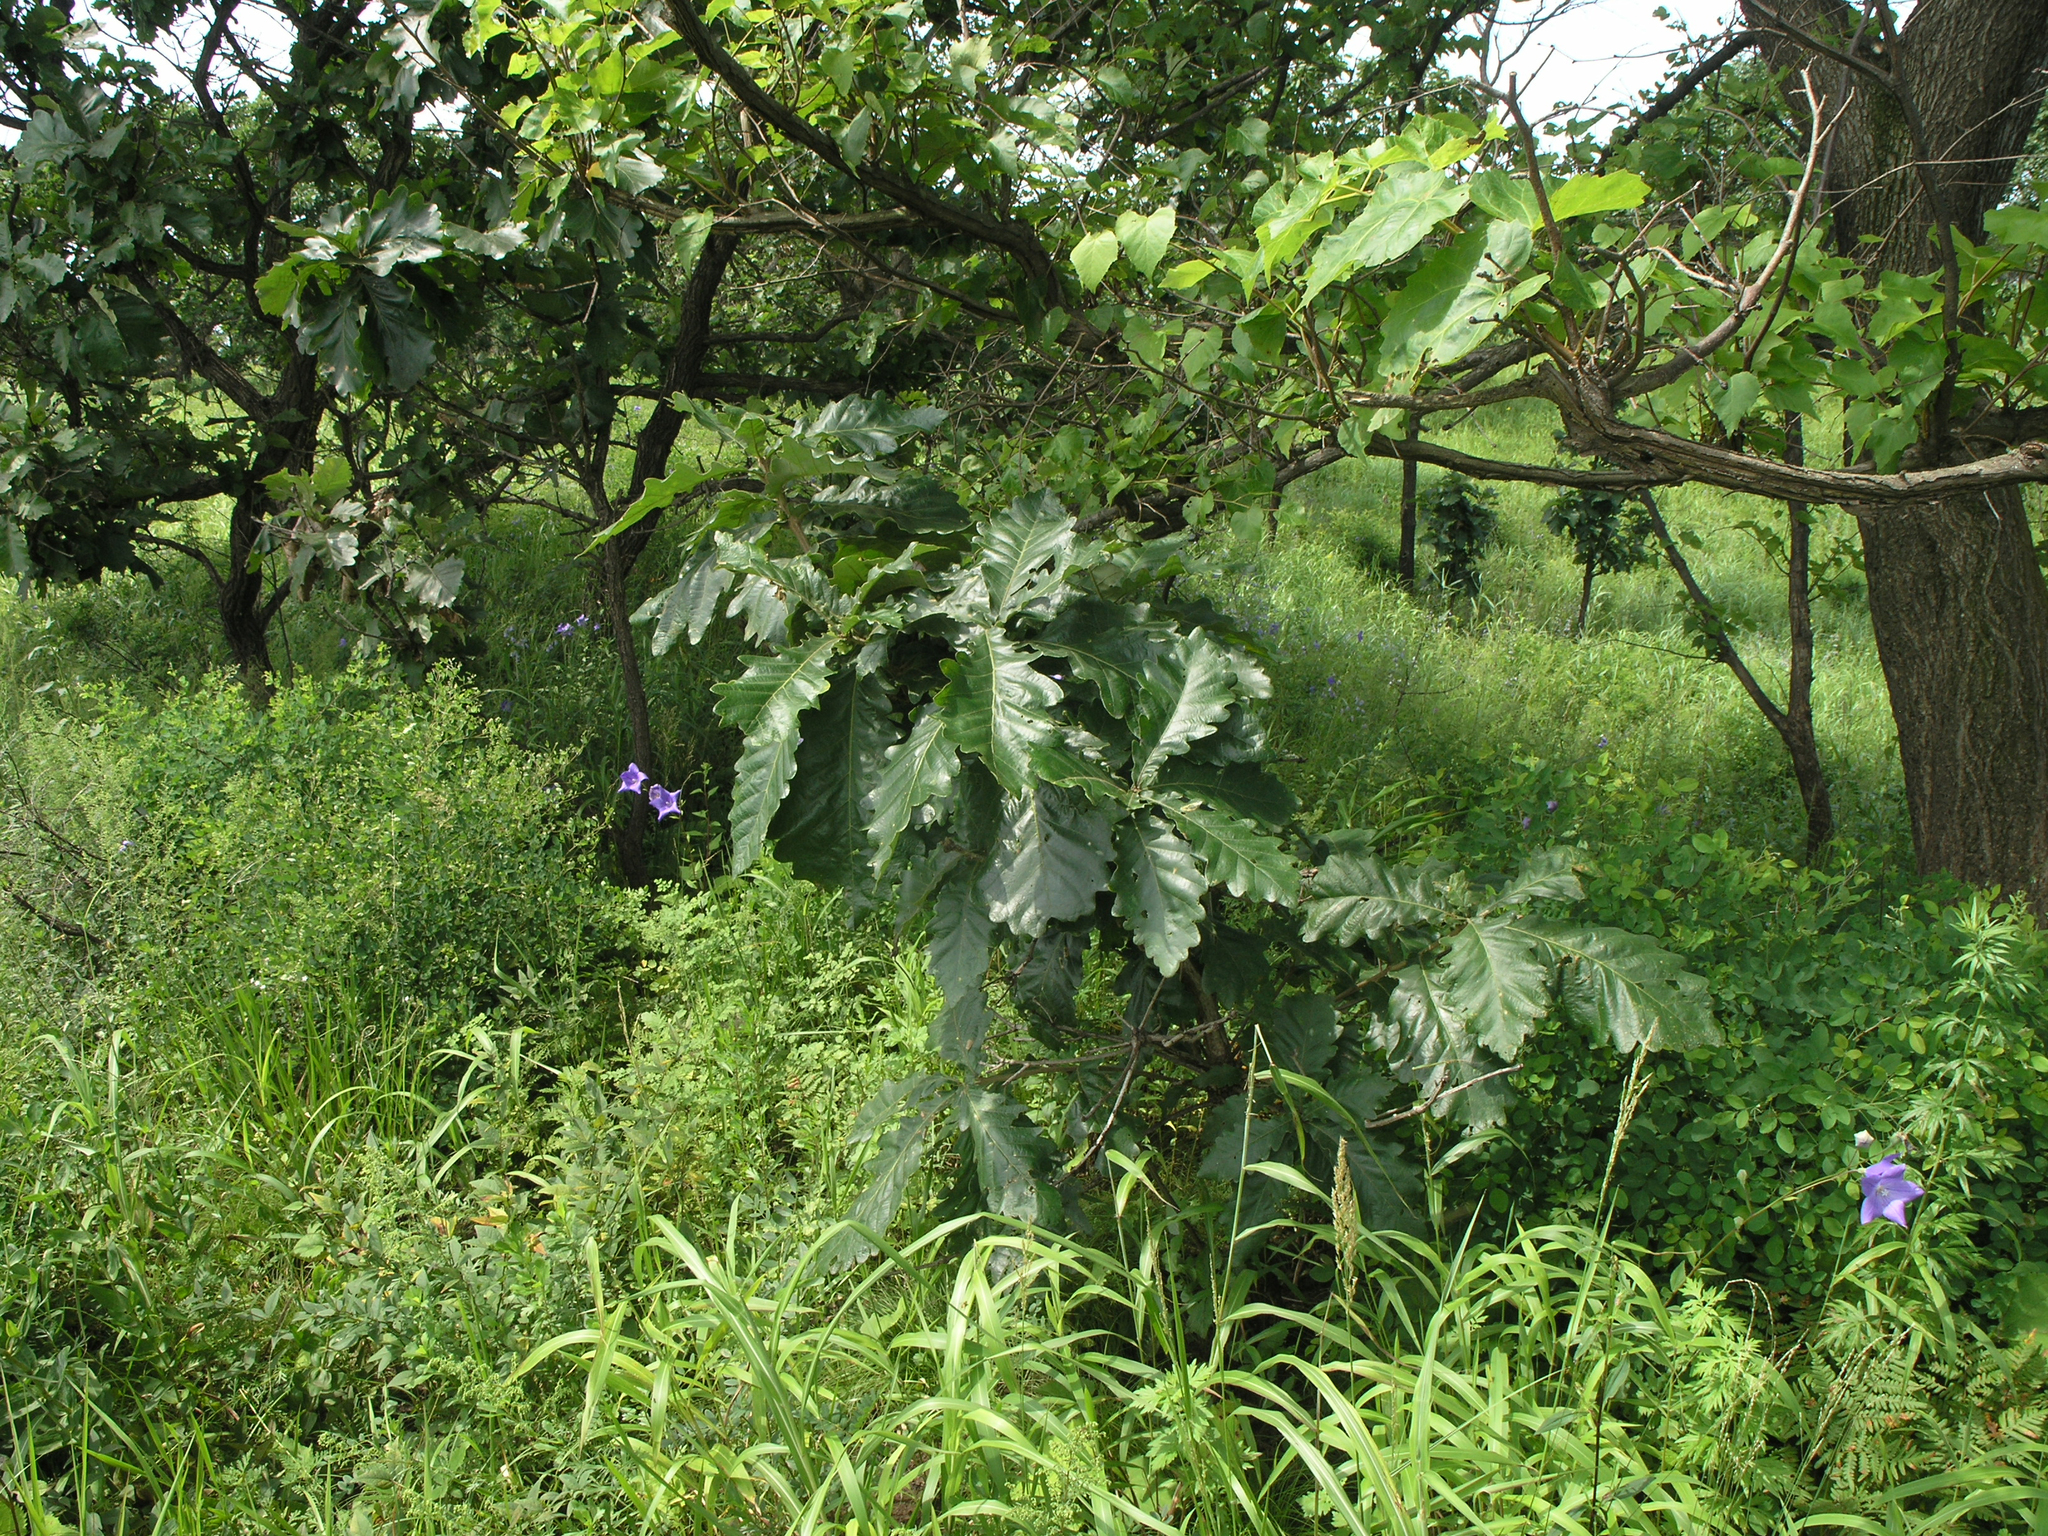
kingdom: Plantae
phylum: Tracheophyta
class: Magnoliopsida
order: Fagales
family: Fagaceae
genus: Quercus
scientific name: Quercus dentata
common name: Daimyo oak
